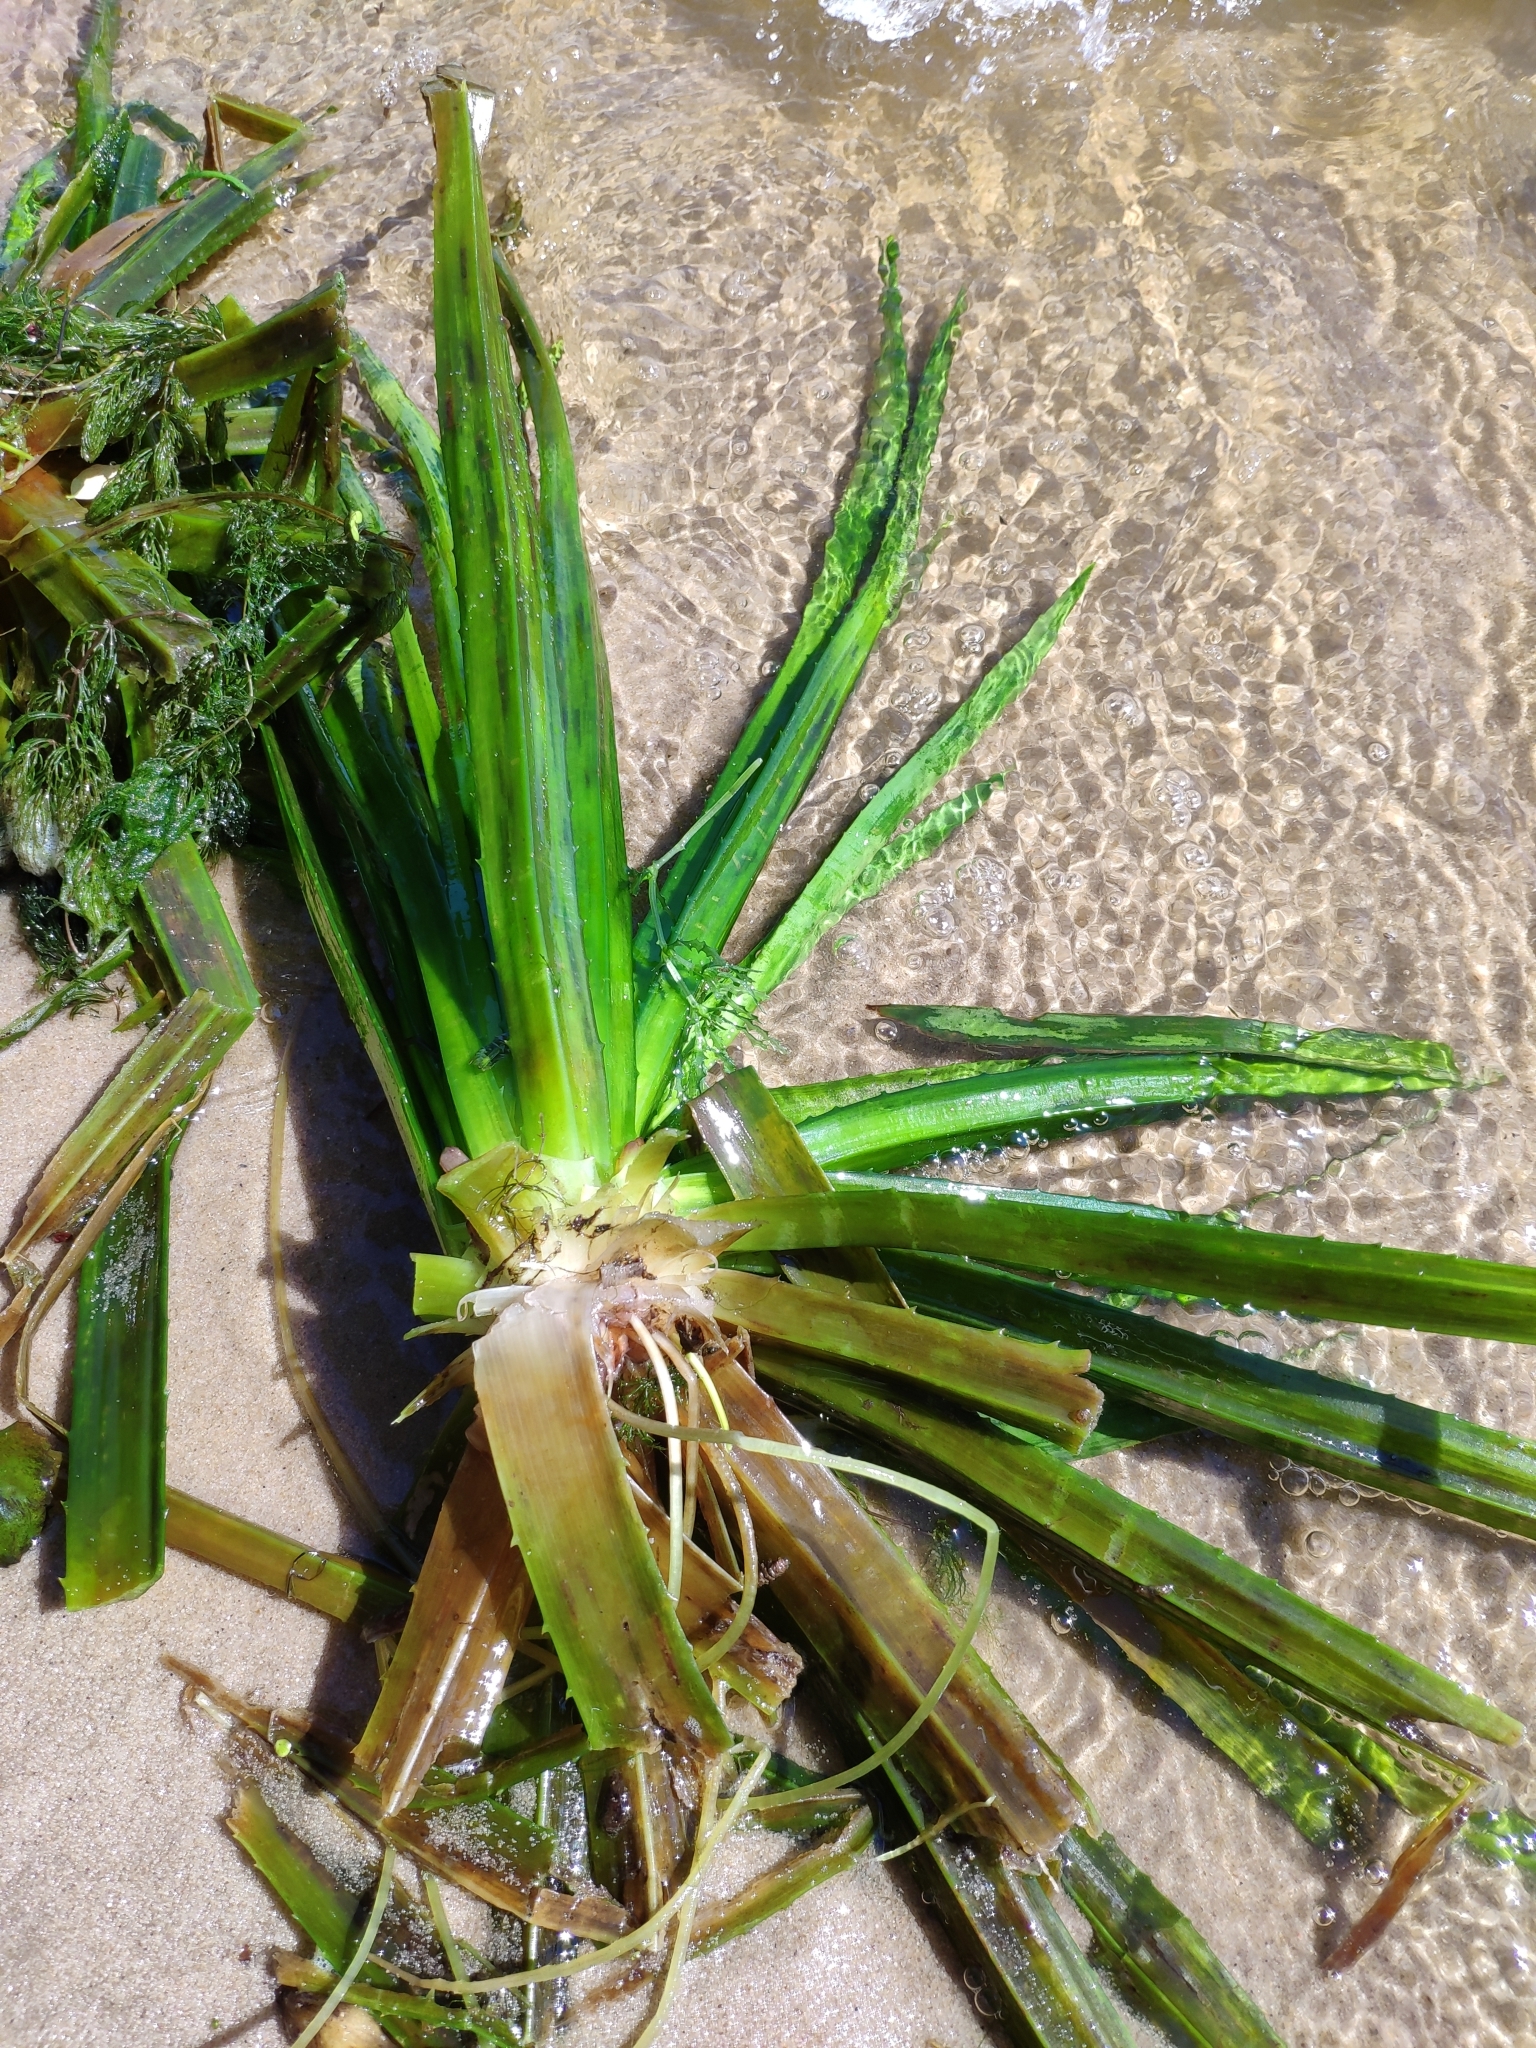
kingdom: Plantae
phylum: Tracheophyta
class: Liliopsida
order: Alismatales
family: Hydrocharitaceae
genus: Stratiotes
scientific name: Stratiotes aloides
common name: Water-soldier
